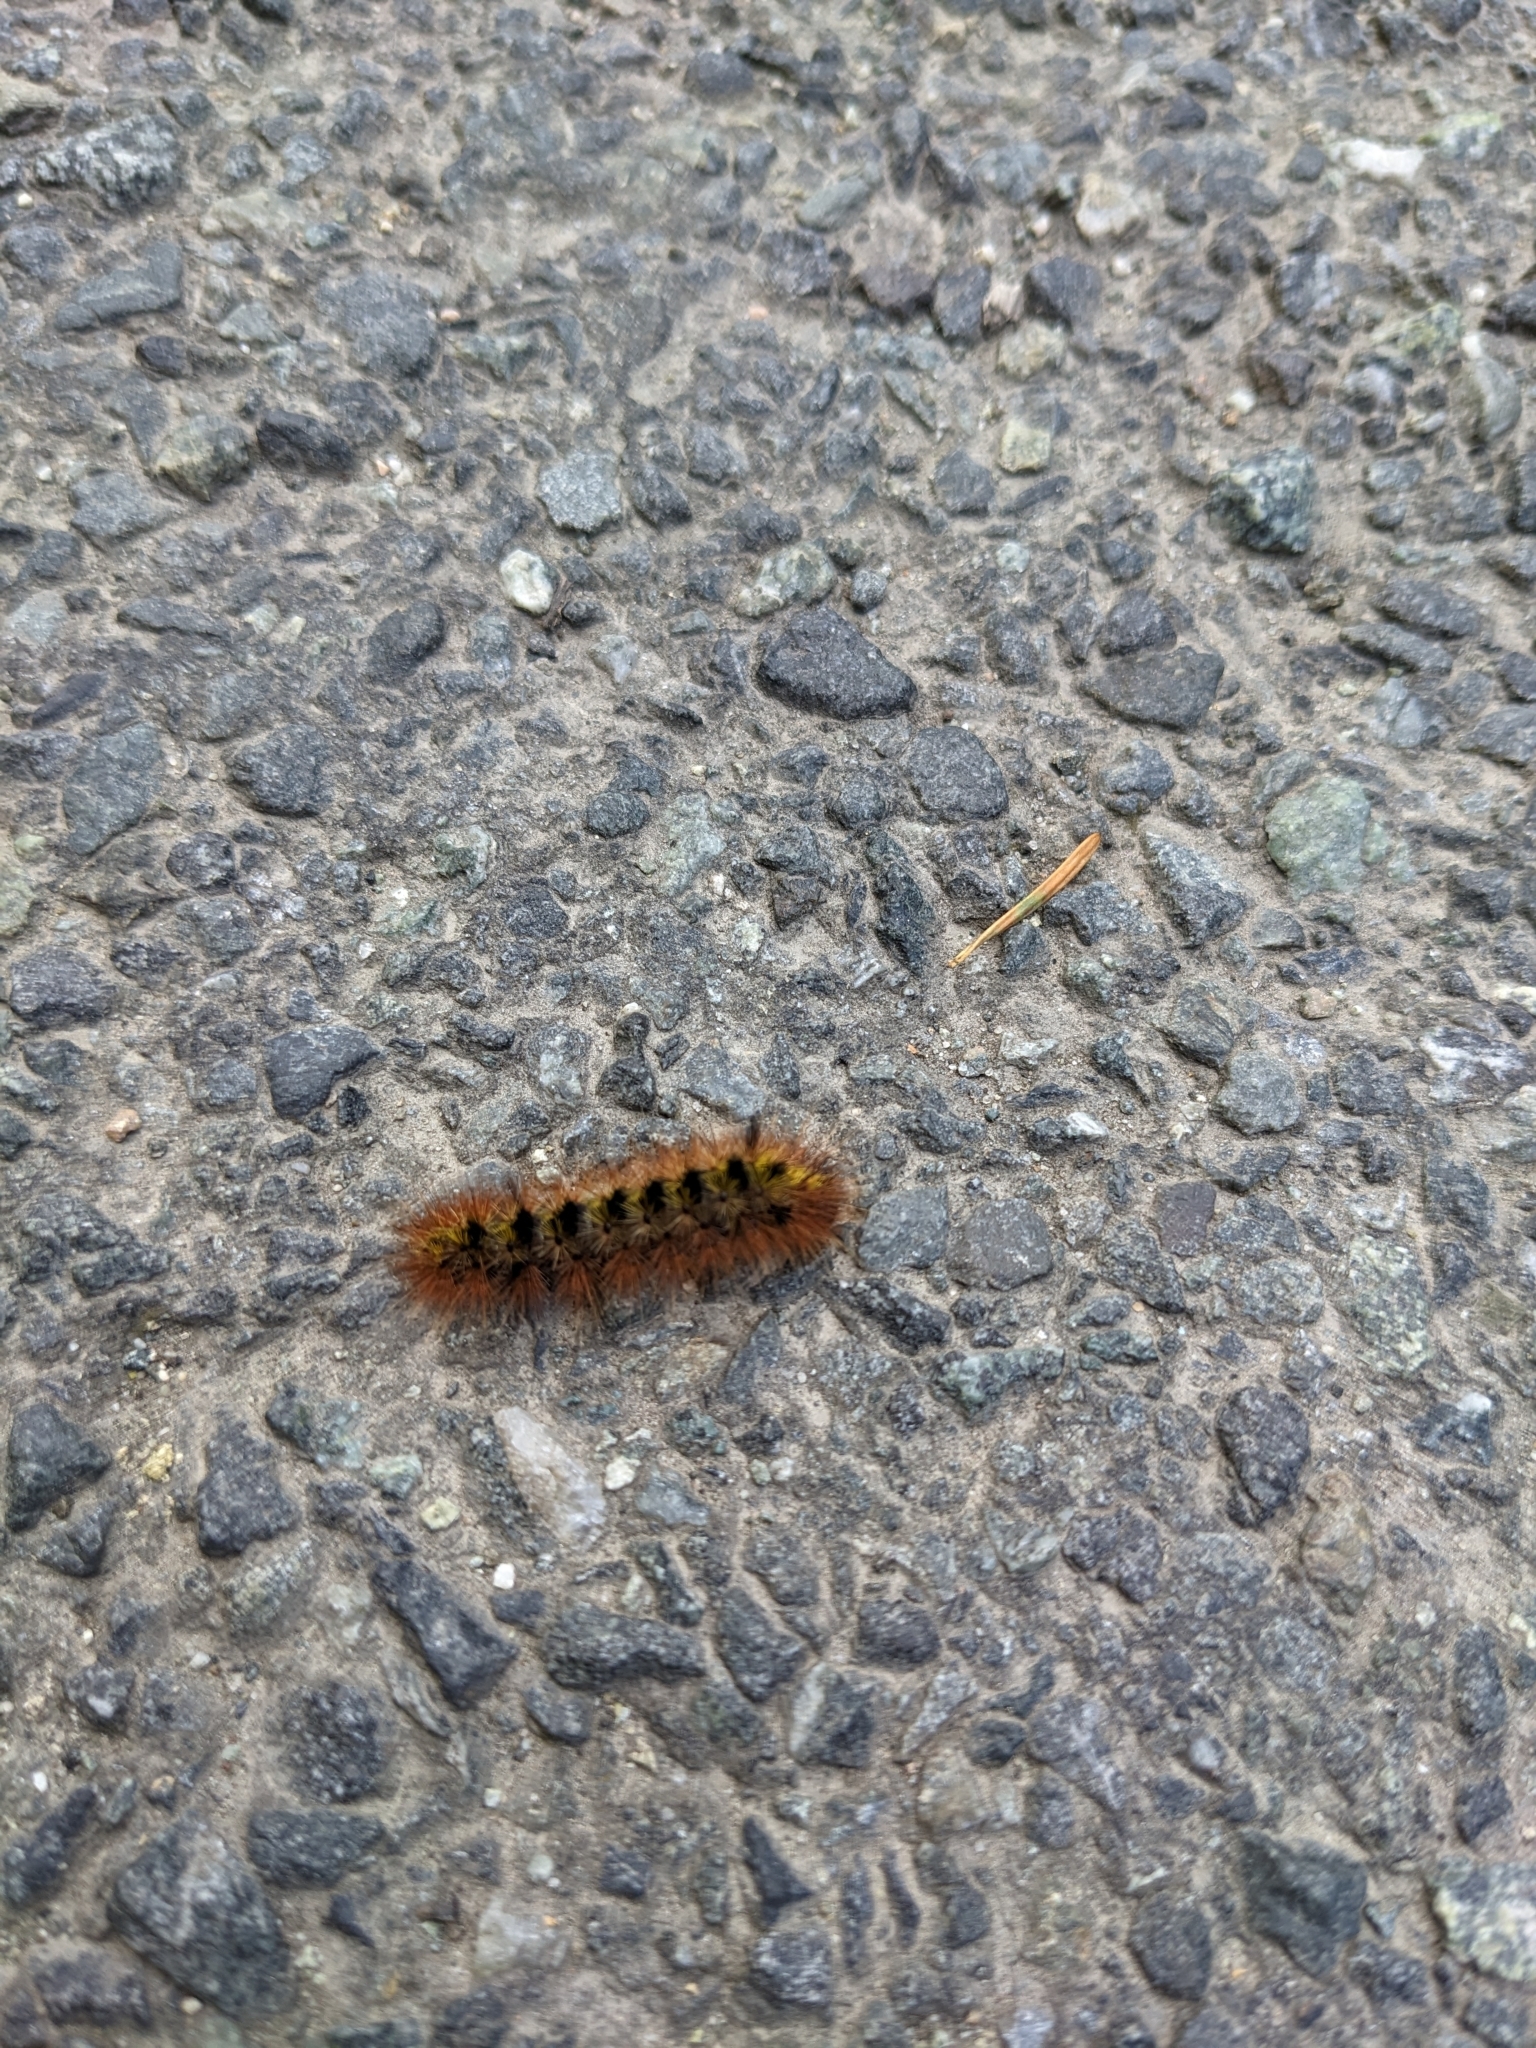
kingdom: Animalia
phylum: Arthropoda
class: Insecta
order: Lepidoptera
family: Erebidae
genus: Lophocampa
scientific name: Lophocampa argentata
